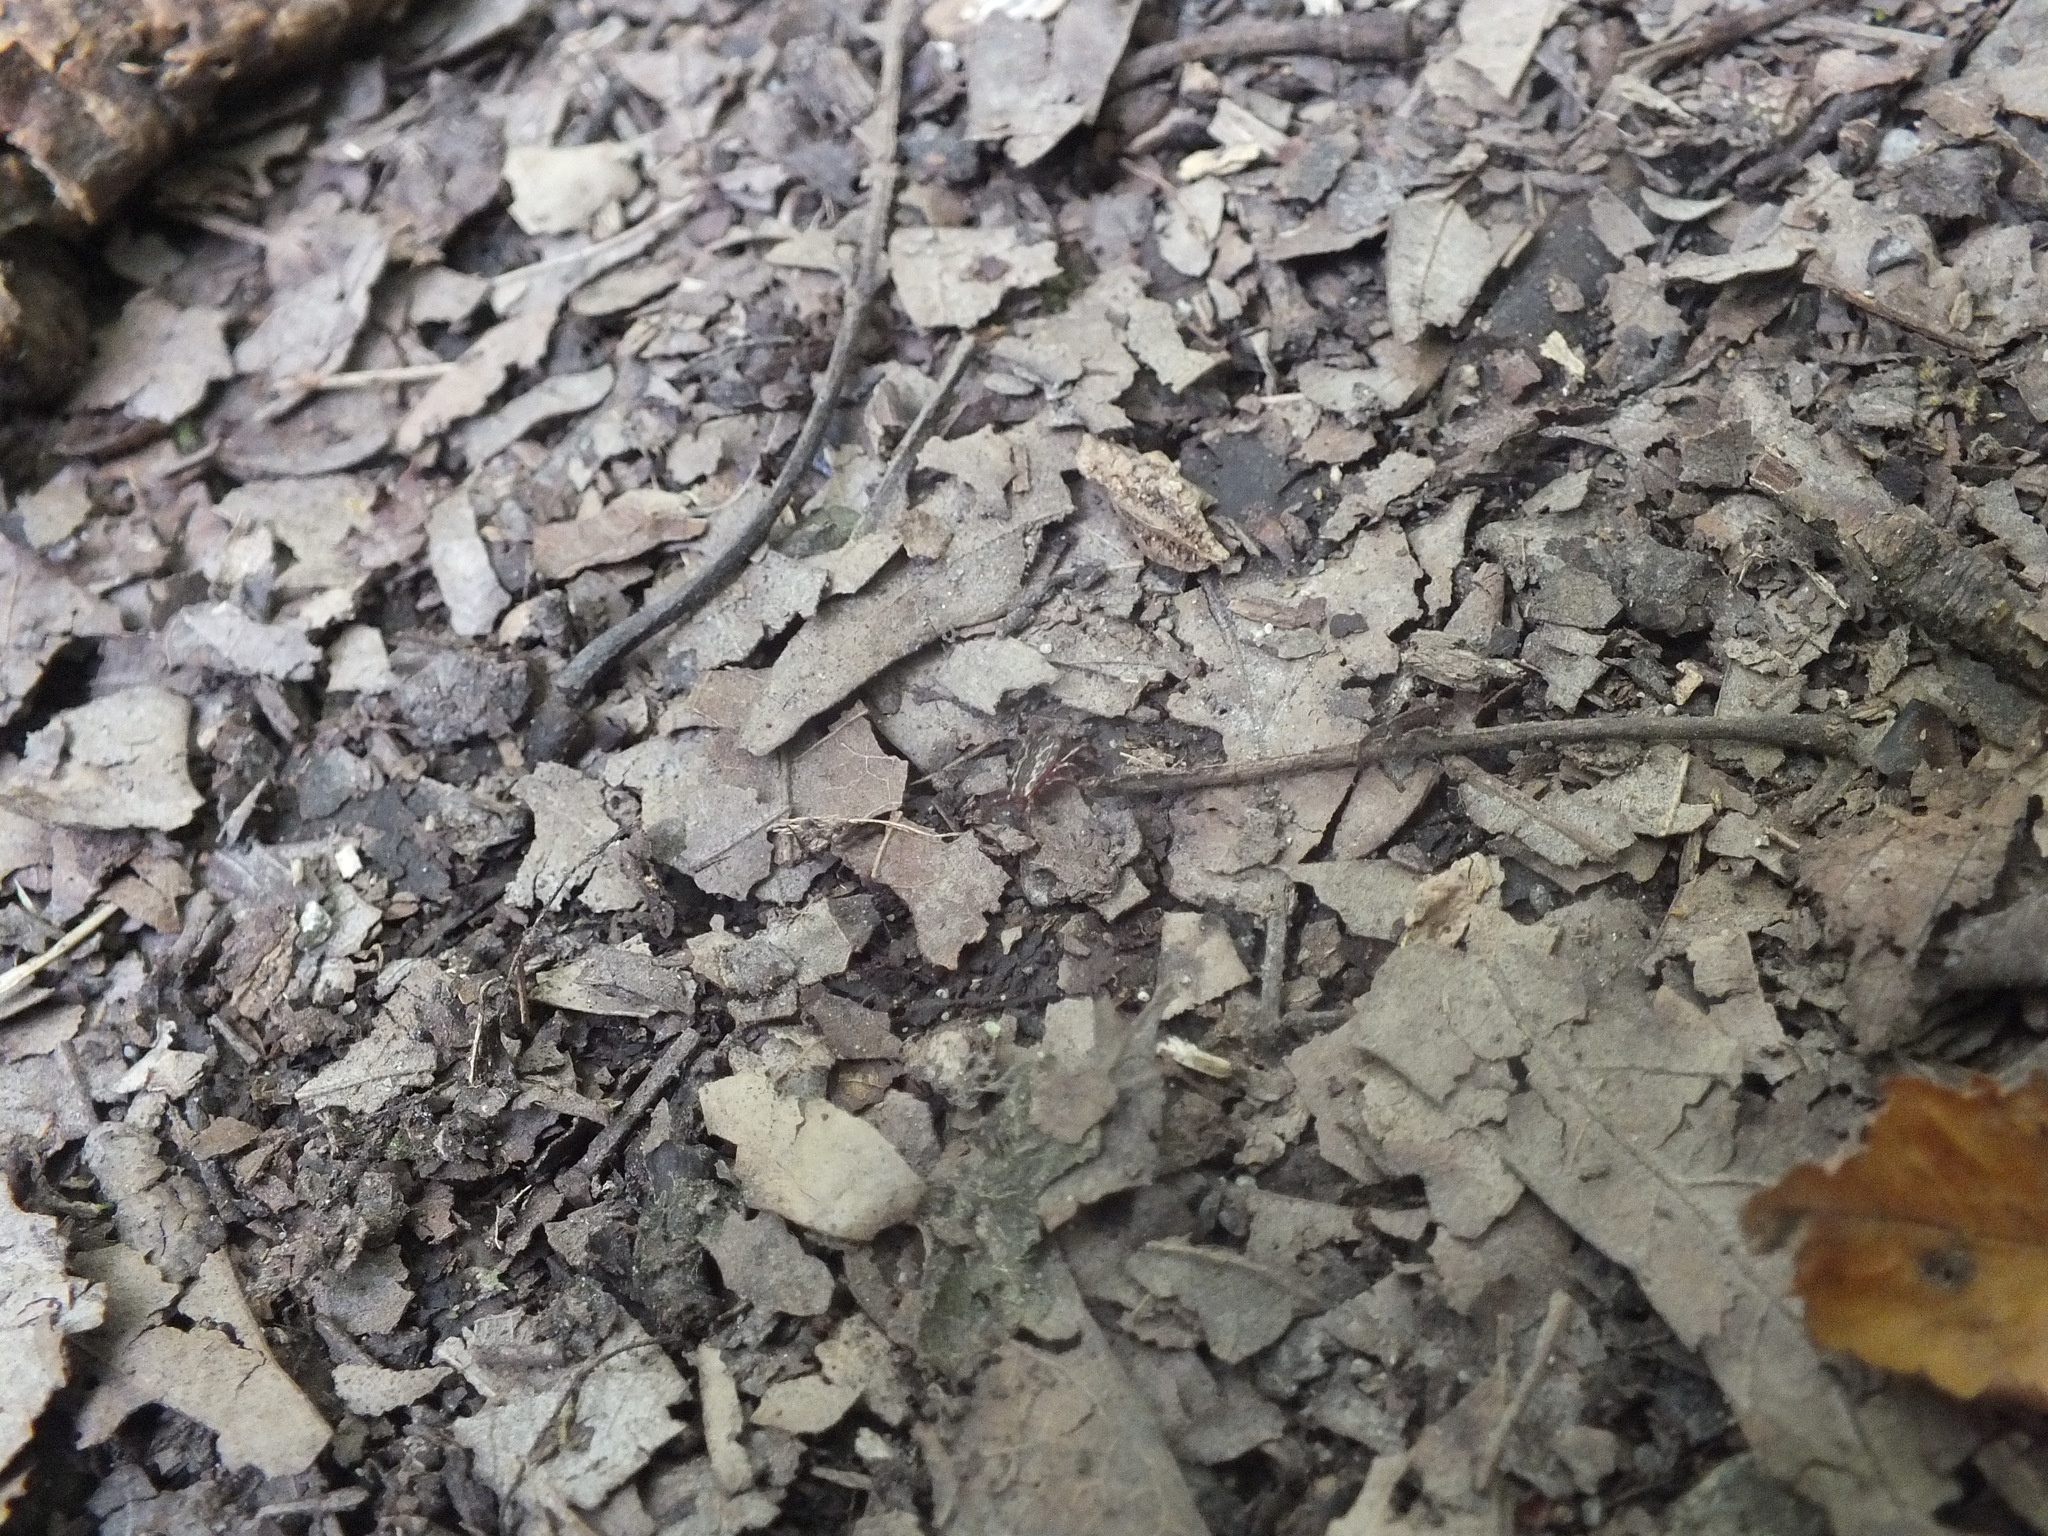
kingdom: Animalia
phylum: Arthropoda
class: Arachnida
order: Ixodida
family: Ixodidae
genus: Dermacentor
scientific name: Dermacentor variabilis
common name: American dog tick
